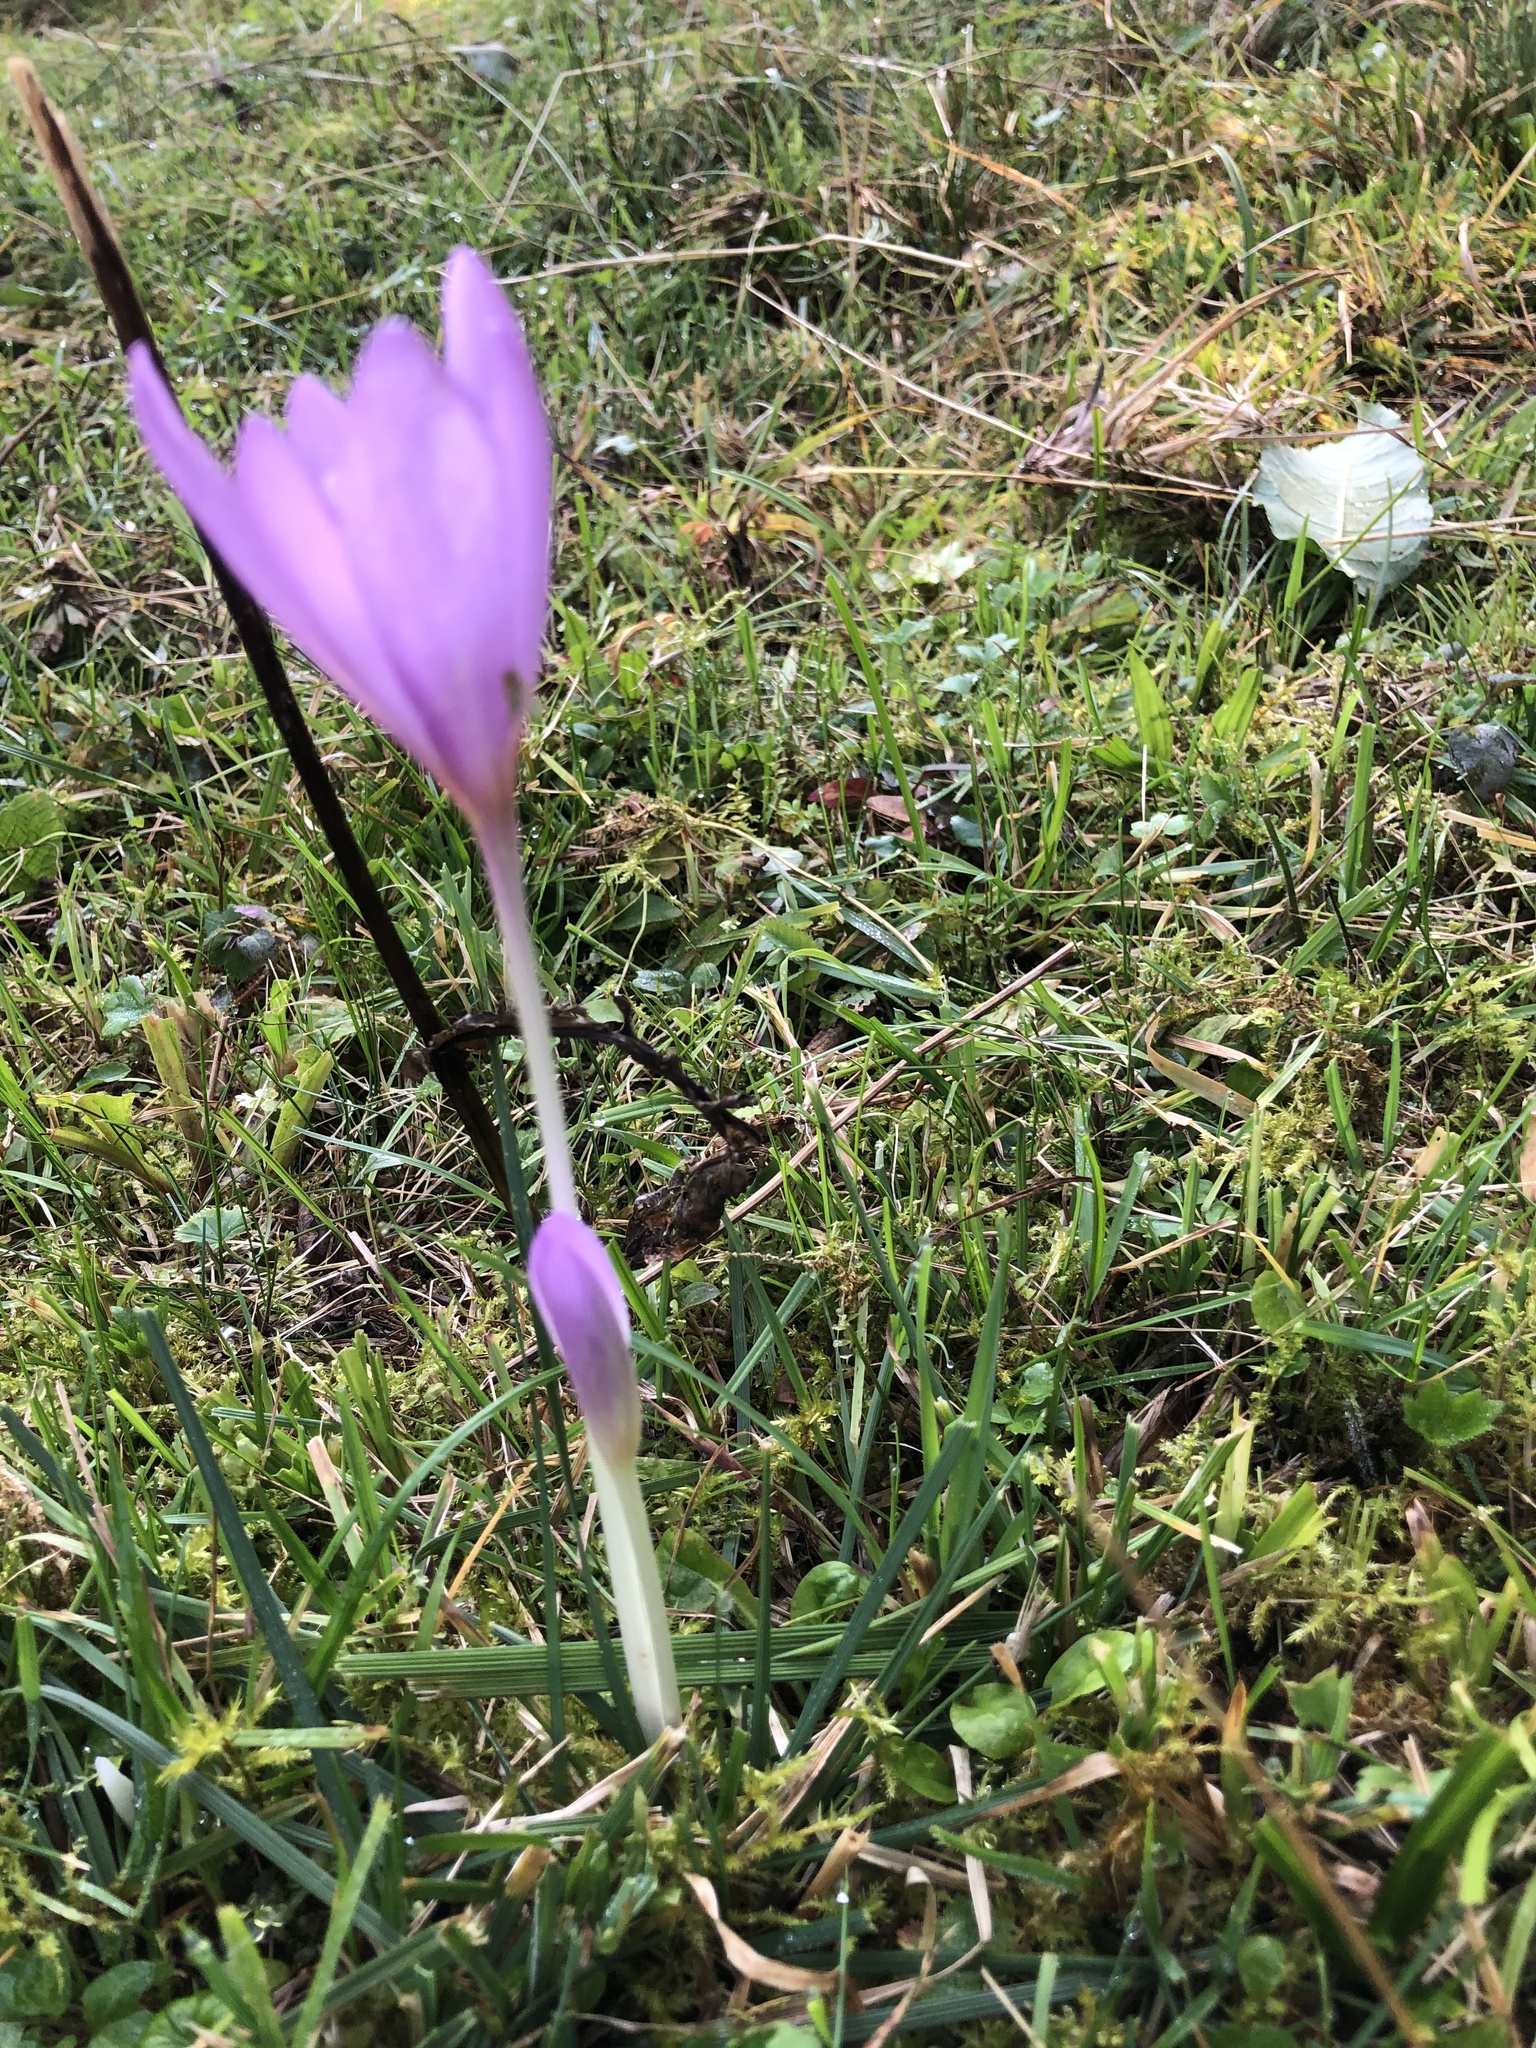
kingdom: Plantae
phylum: Tracheophyta
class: Liliopsida
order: Liliales
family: Colchicaceae
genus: Colchicum
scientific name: Colchicum autumnale
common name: Autumn crocus
